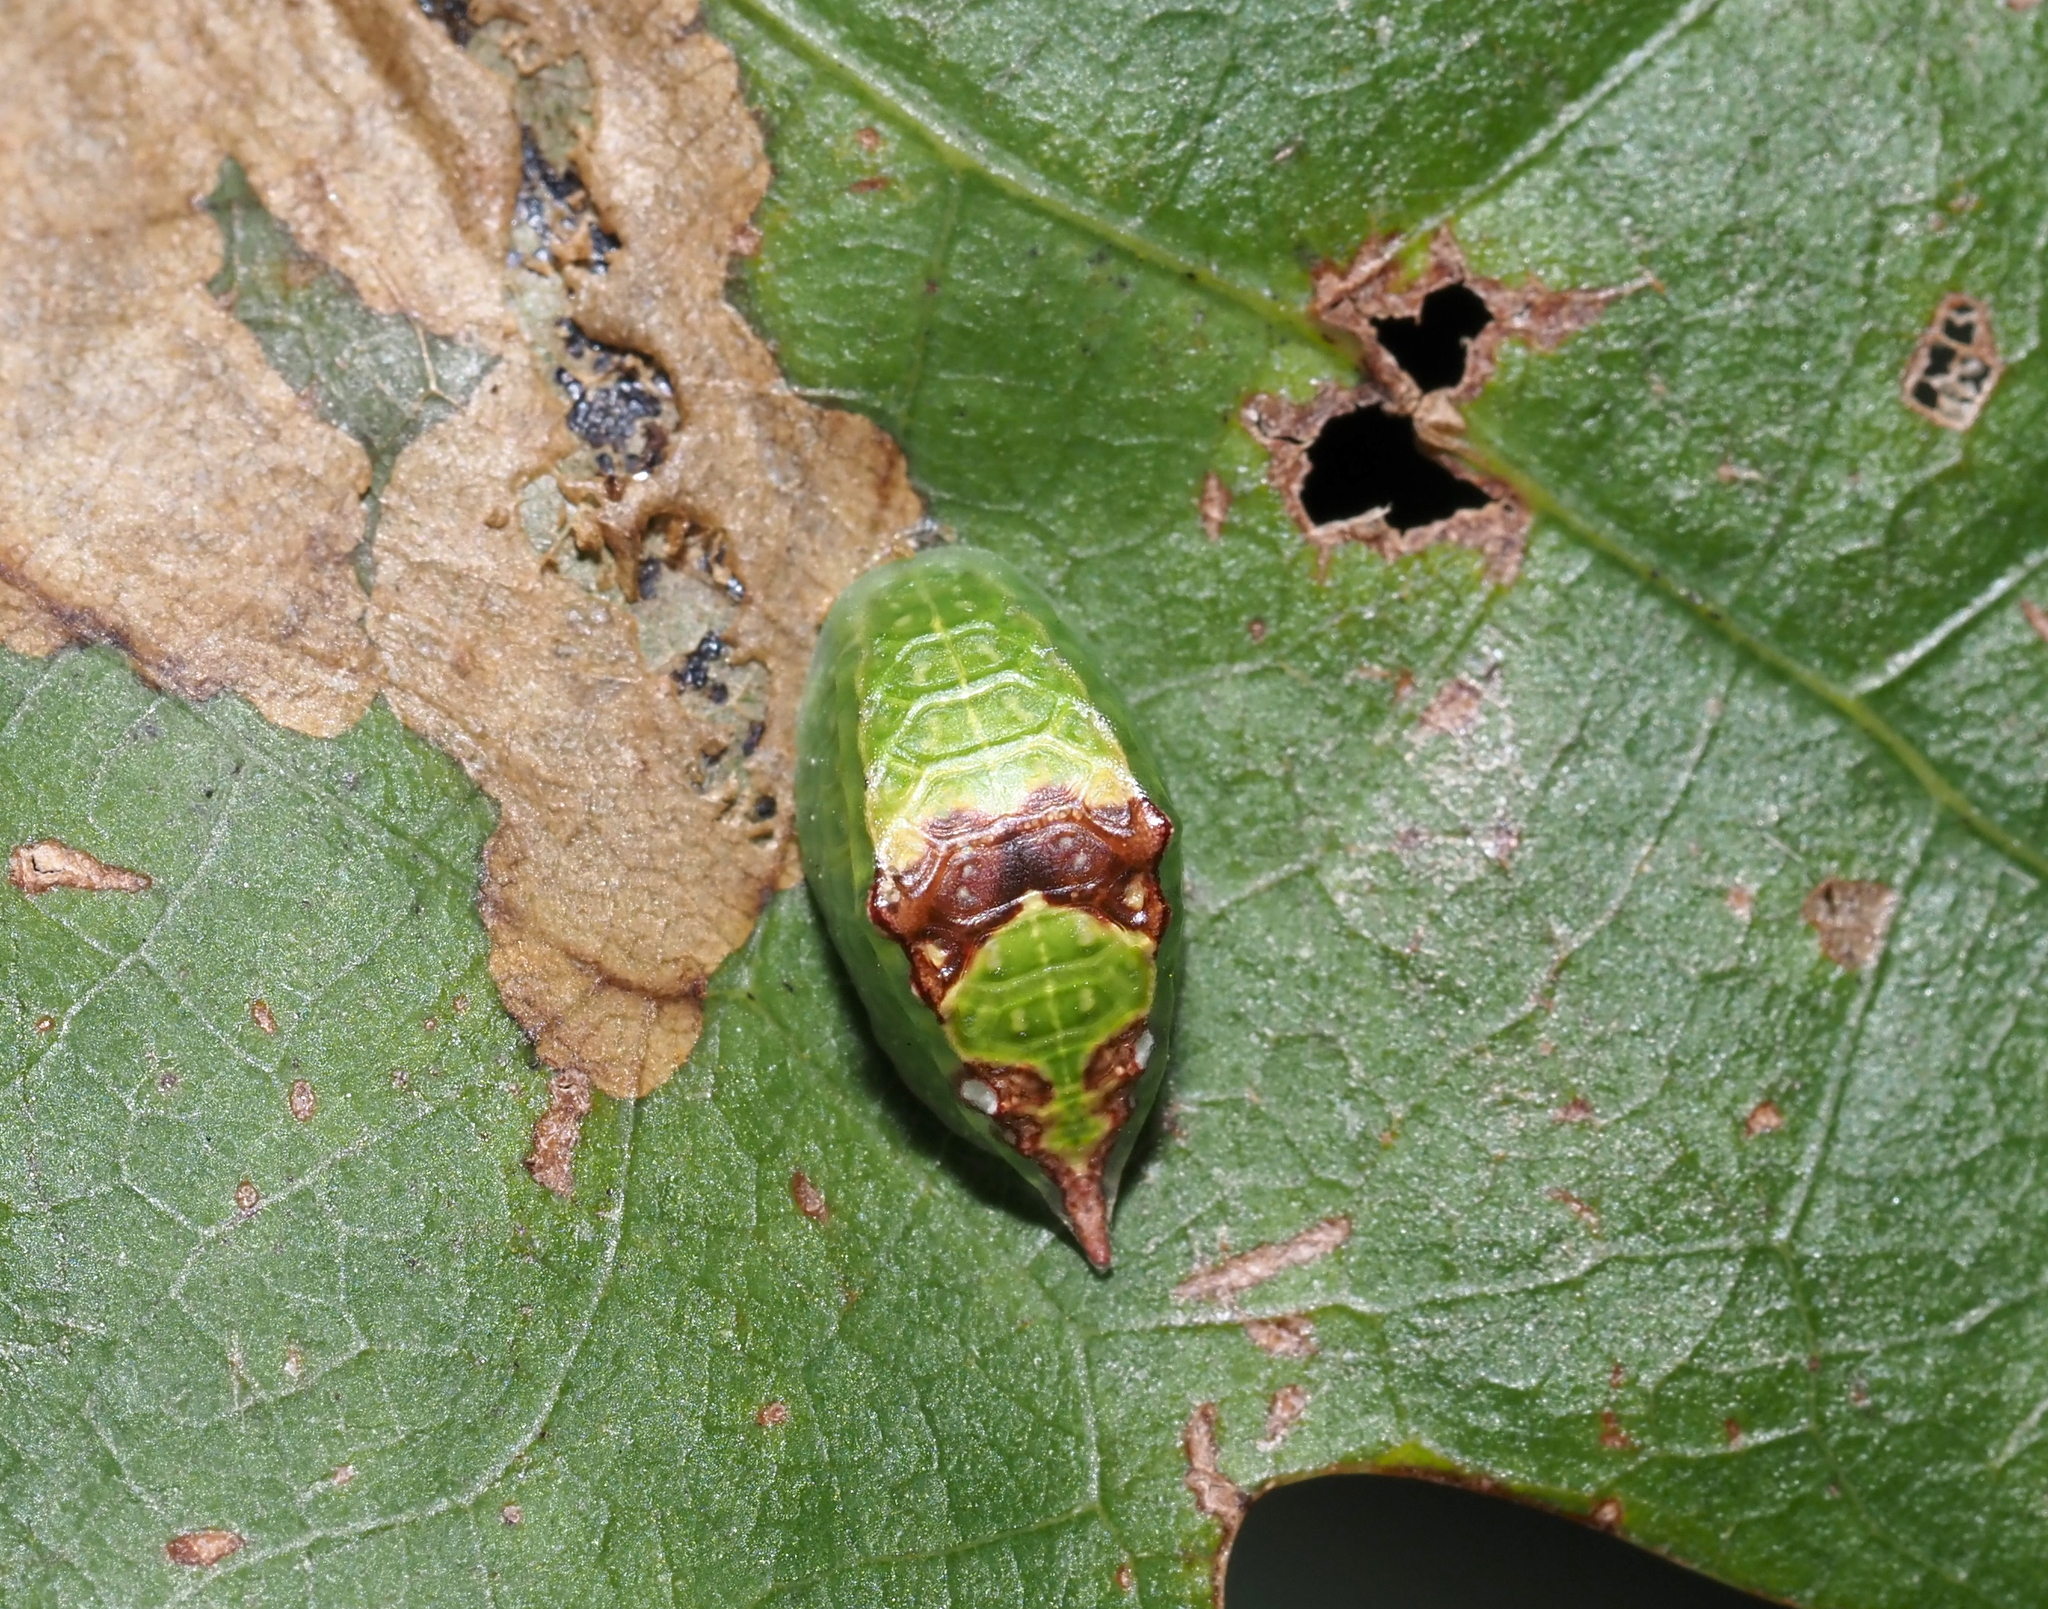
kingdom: Animalia
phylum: Arthropoda
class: Insecta
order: Lepidoptera
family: Limacodidae
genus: Prolimacodes
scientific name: Prolimacodes badia
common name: Skiff moth
